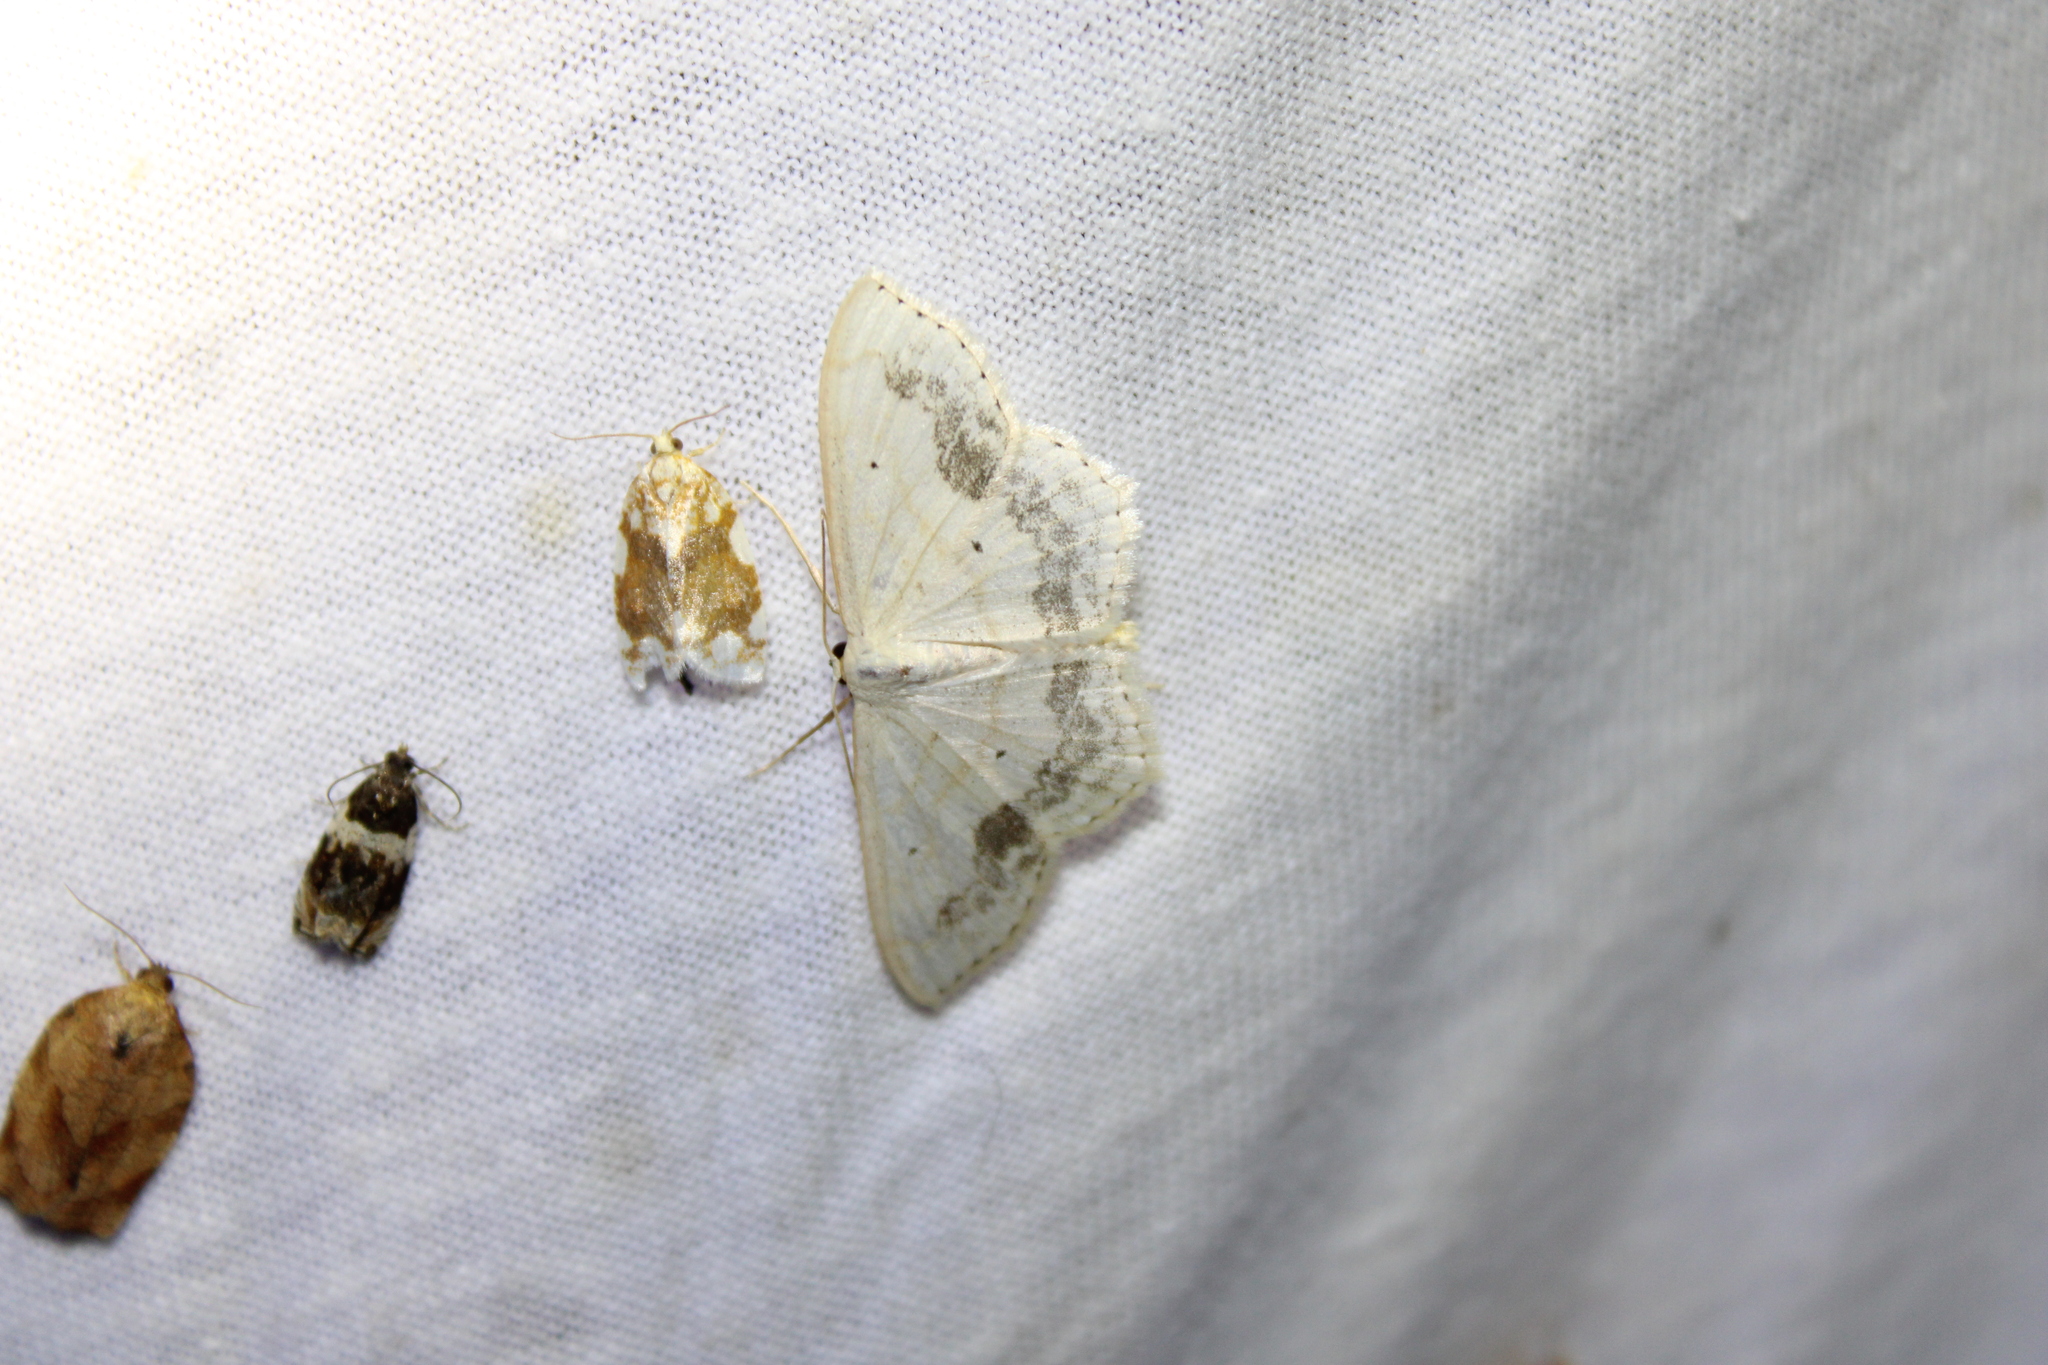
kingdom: Animalia
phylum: Arthropoda
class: Insecta
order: Lepidoptera
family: Geometridae
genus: Scopula
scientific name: Scopula limboundata
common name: Large lace border
